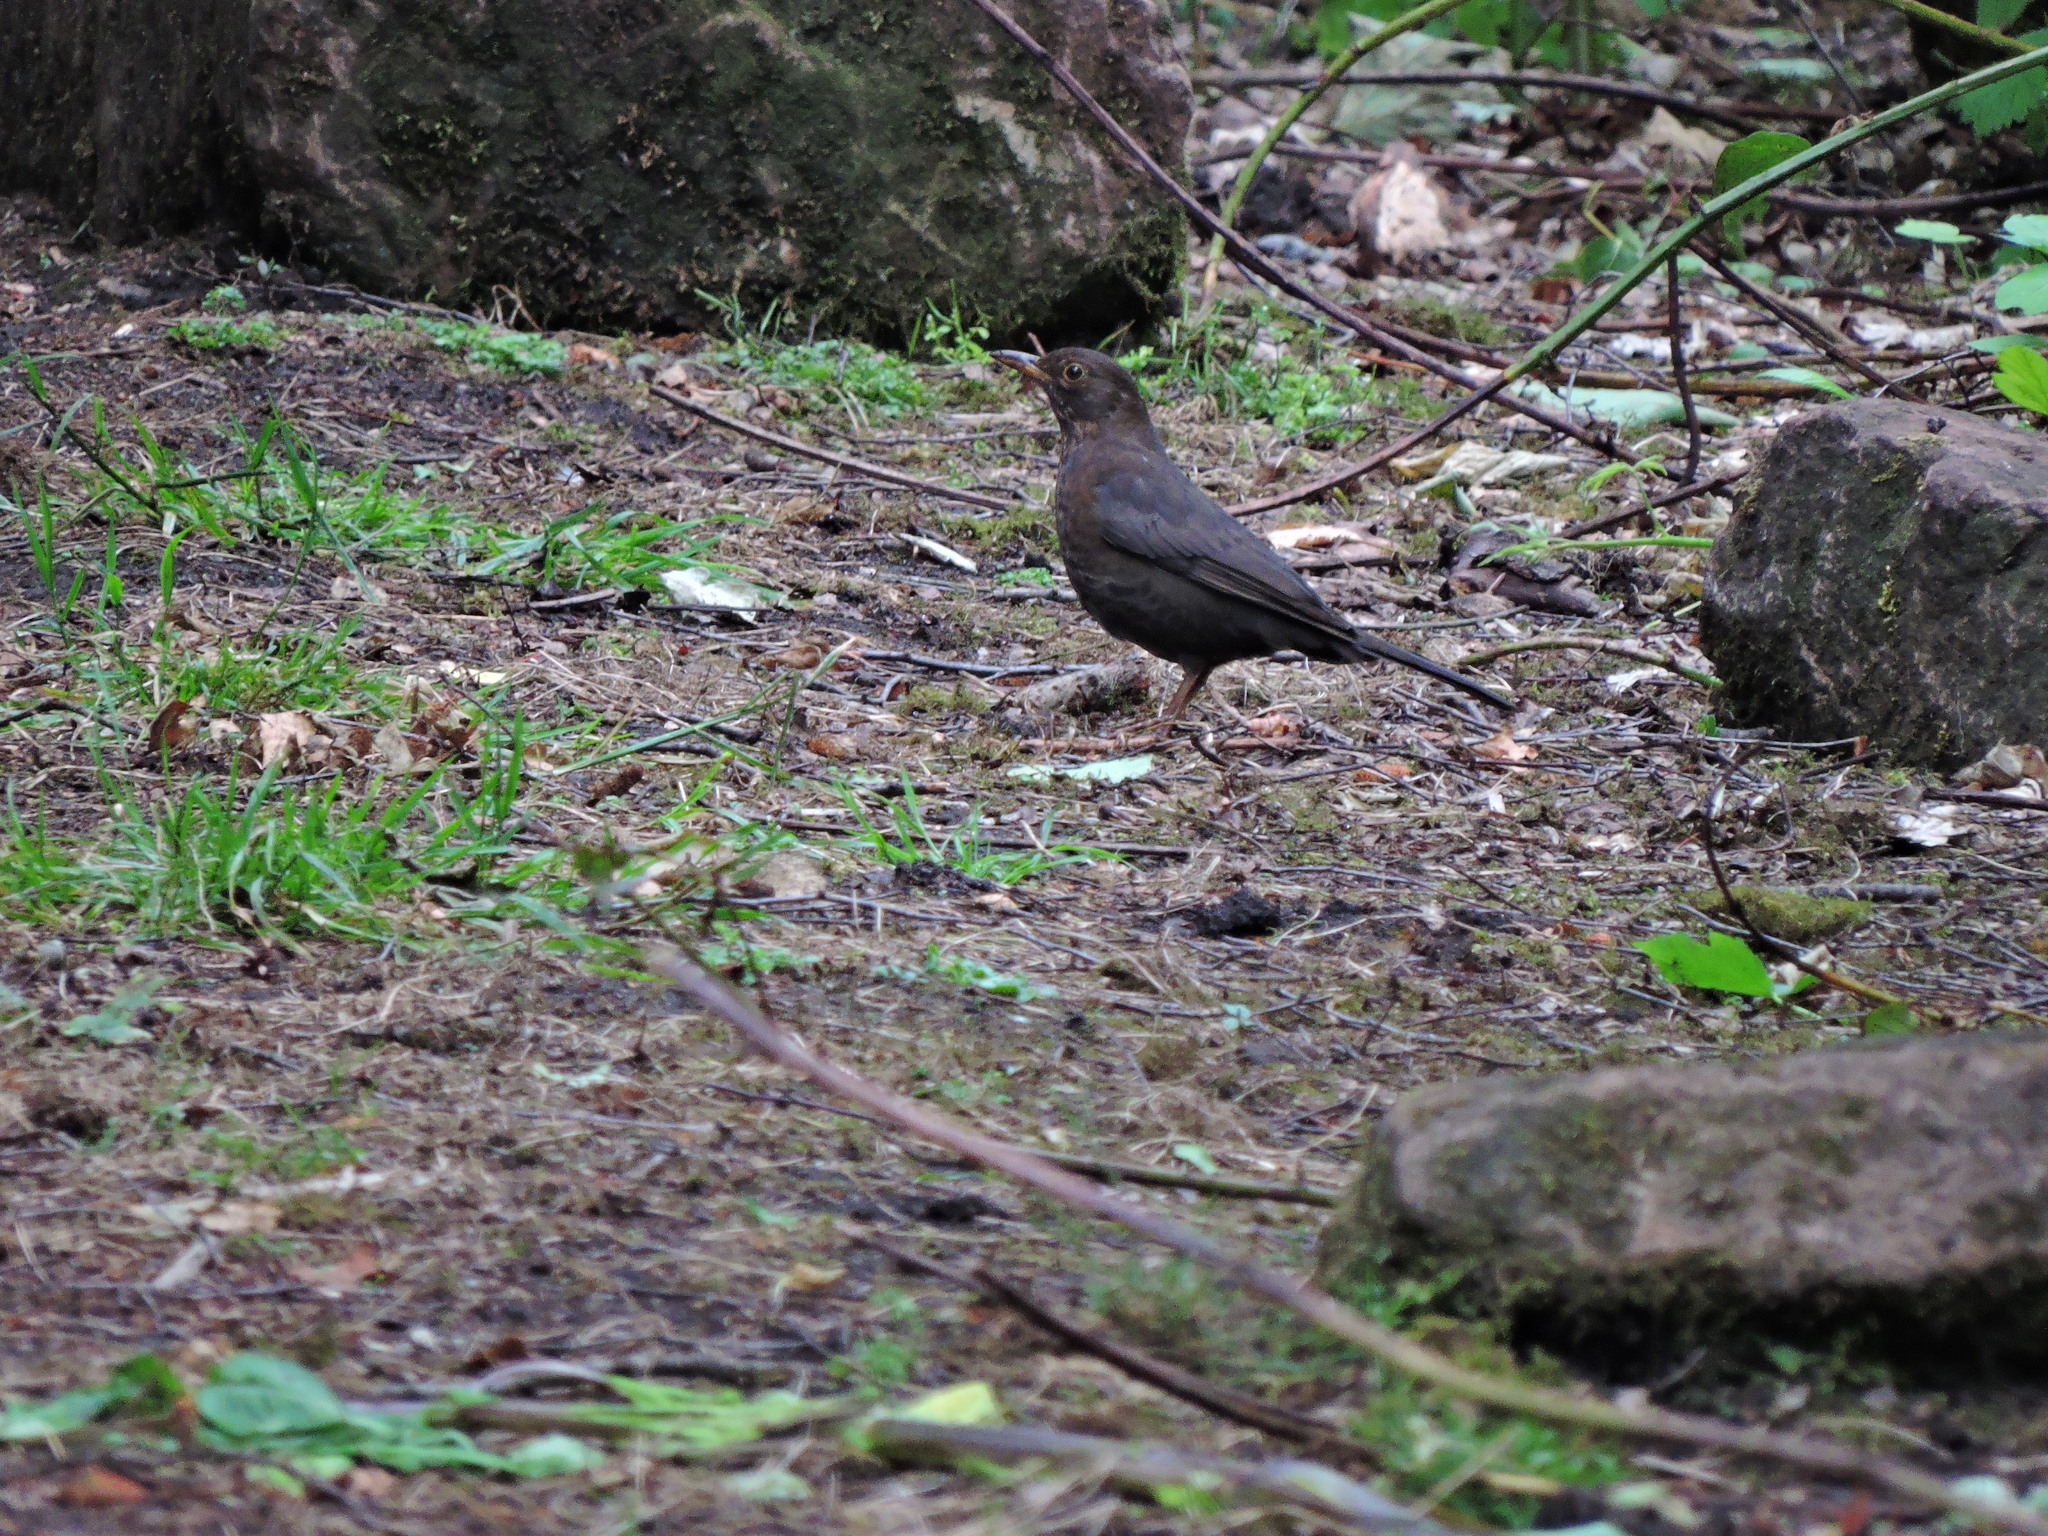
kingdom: Animalia
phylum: Chordata
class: Aves
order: Passeriformes
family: Turdidae
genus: Turdus
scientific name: Turdus merula
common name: Common blackbird
